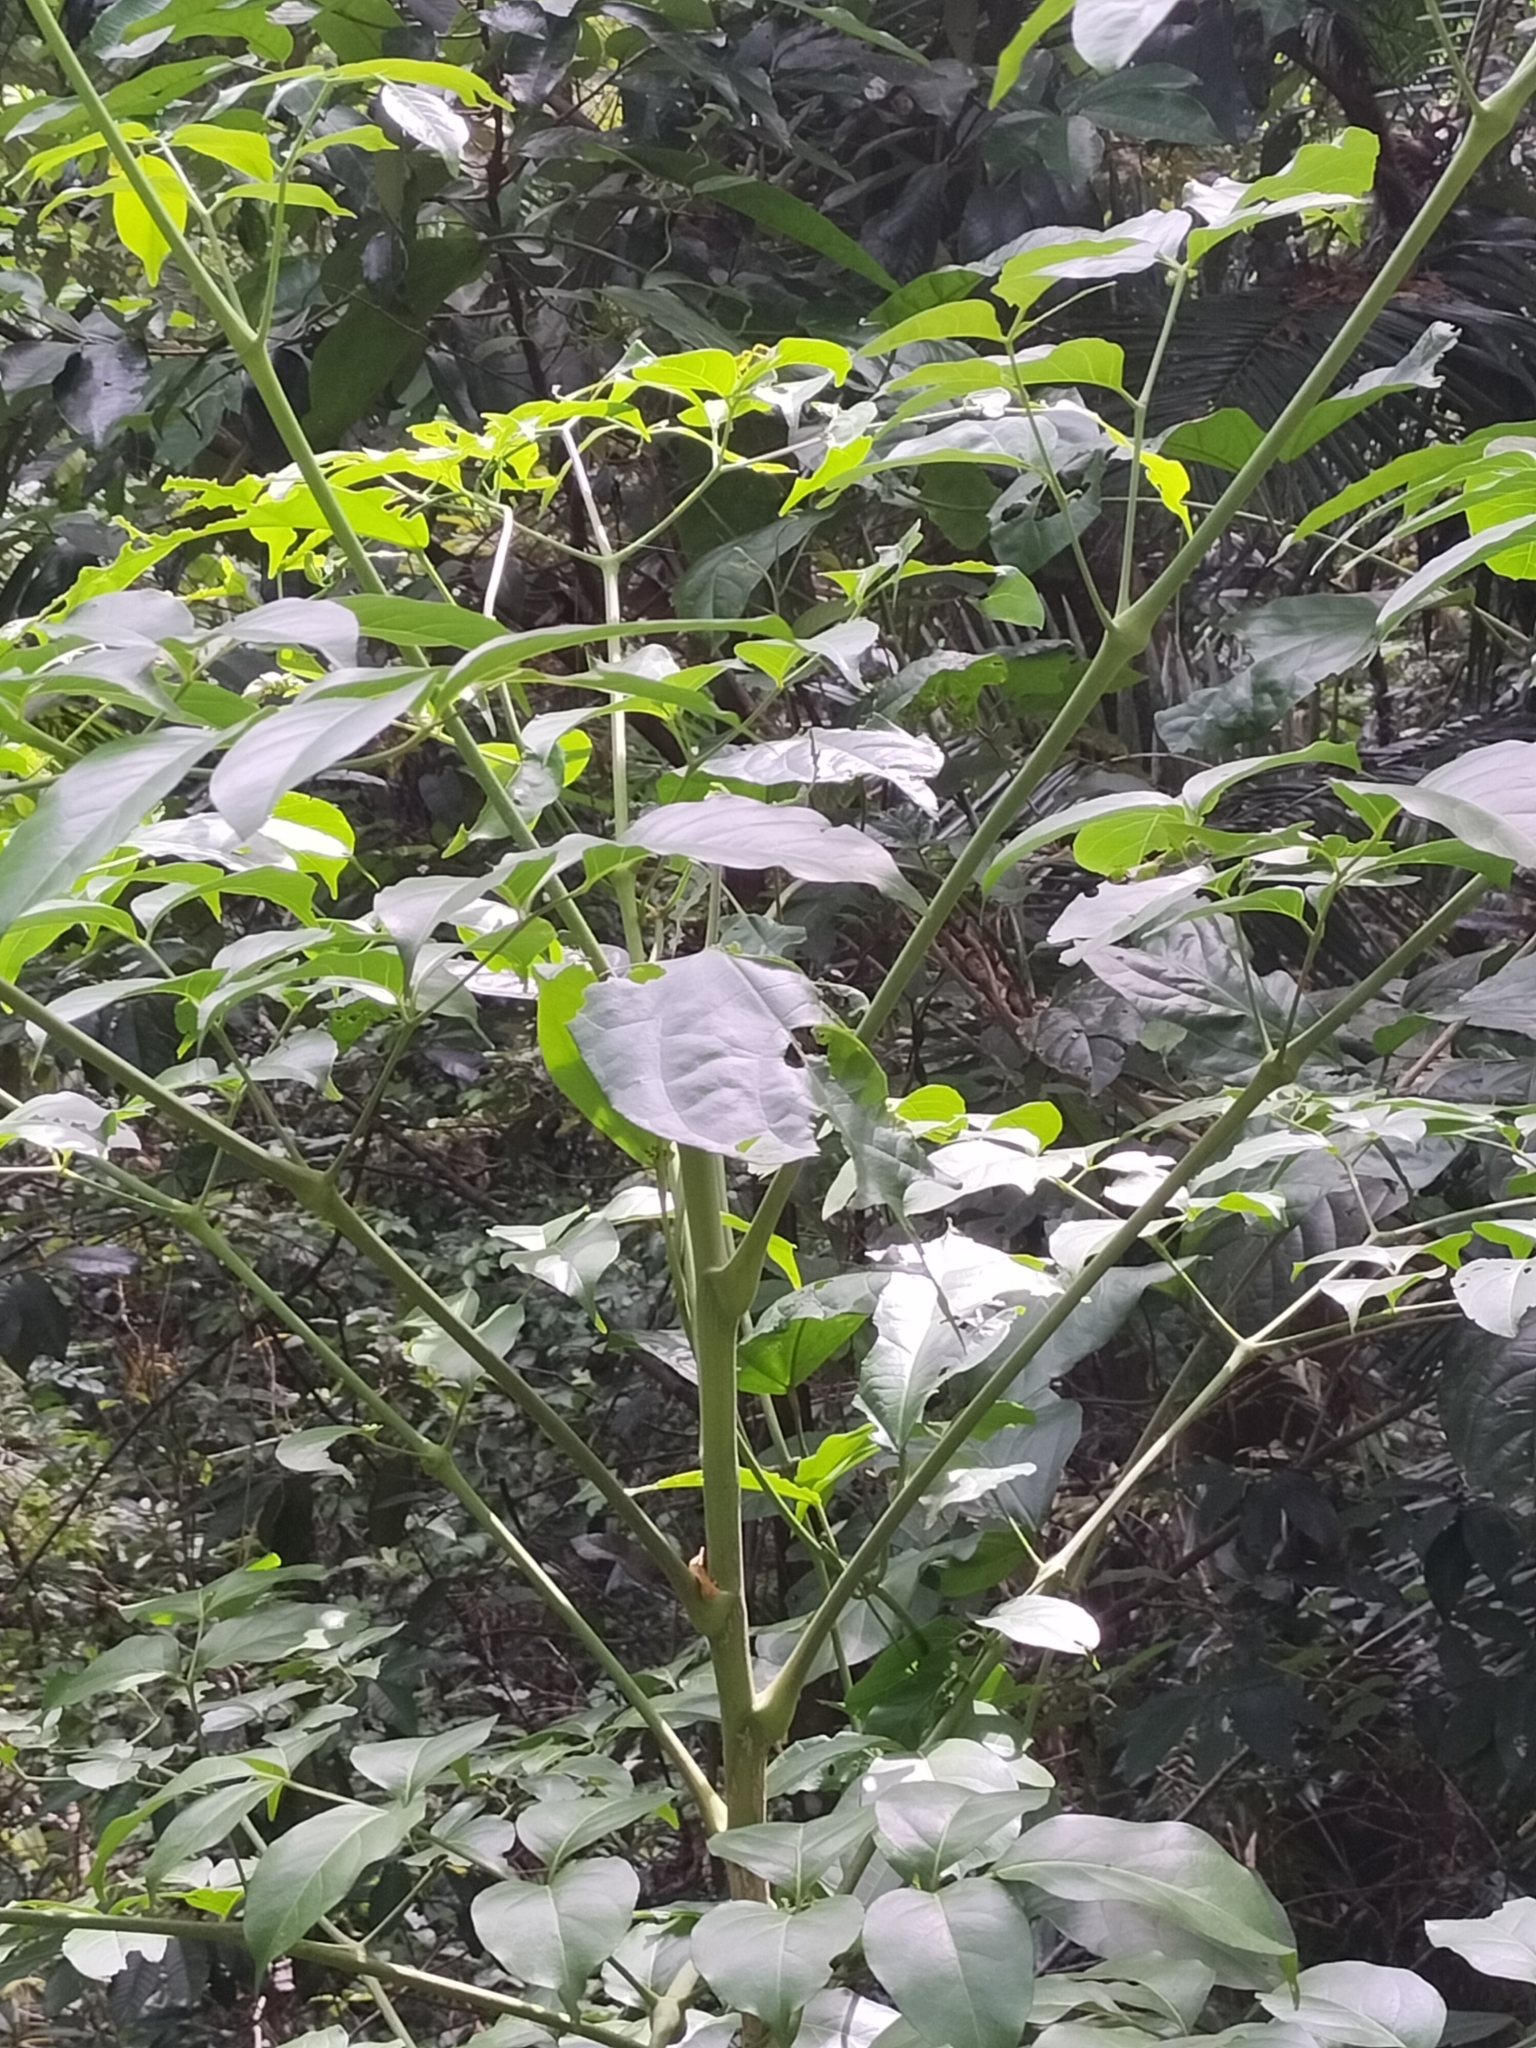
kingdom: Plantae
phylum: Tracheophyta
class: Magnoliopsida
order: Apiales
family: Araliaceae
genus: Polyscias
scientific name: Polyscias elegans
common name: Mowbulan whitewood
